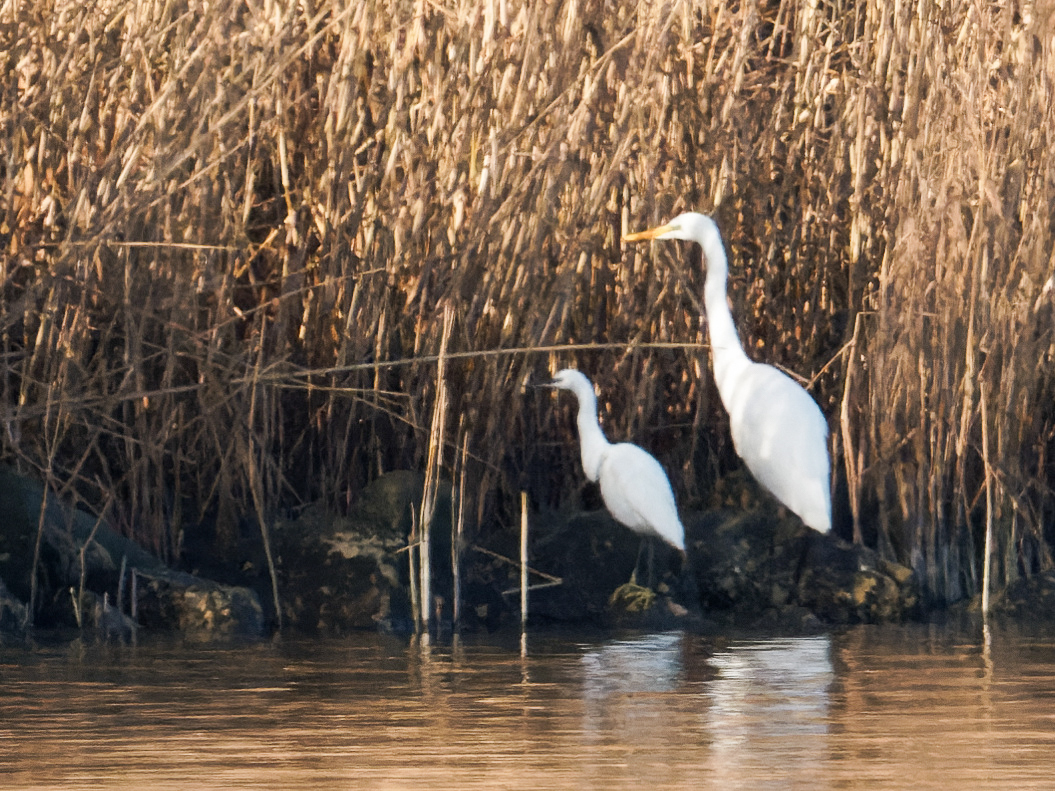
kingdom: Animalia
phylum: Chordata
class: Aves
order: Pelecaniformes
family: Ardeidae
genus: Ardea
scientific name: Ardea alba
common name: Great egret
